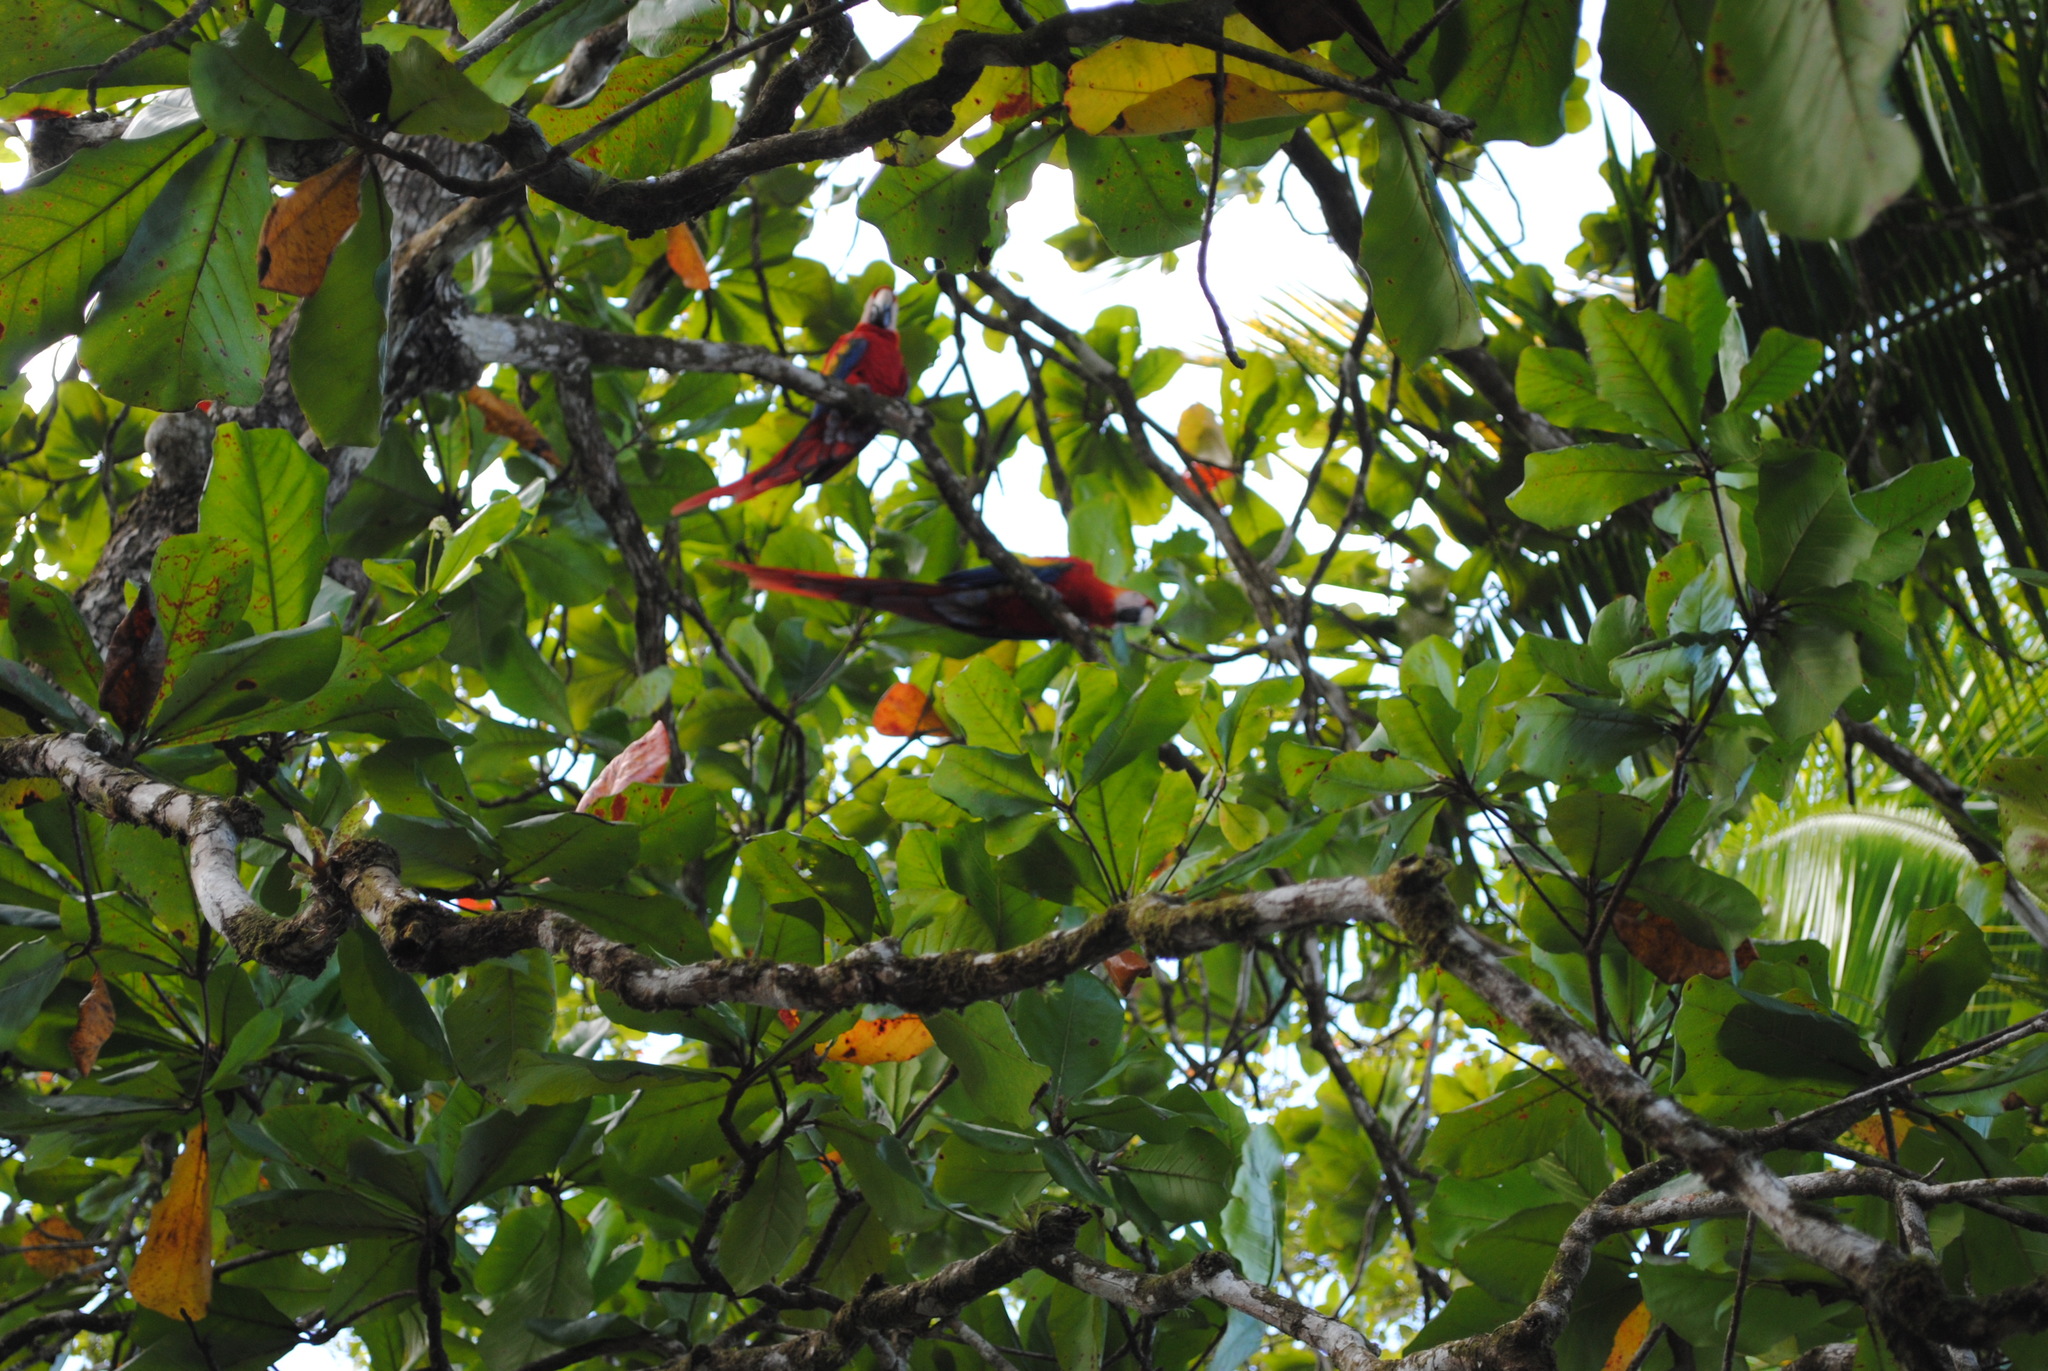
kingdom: Animalia
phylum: Chordata
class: Aves
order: Psittaciformes
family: Psittacidae
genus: Ara
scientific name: Ara macao
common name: Scarlet macaw
